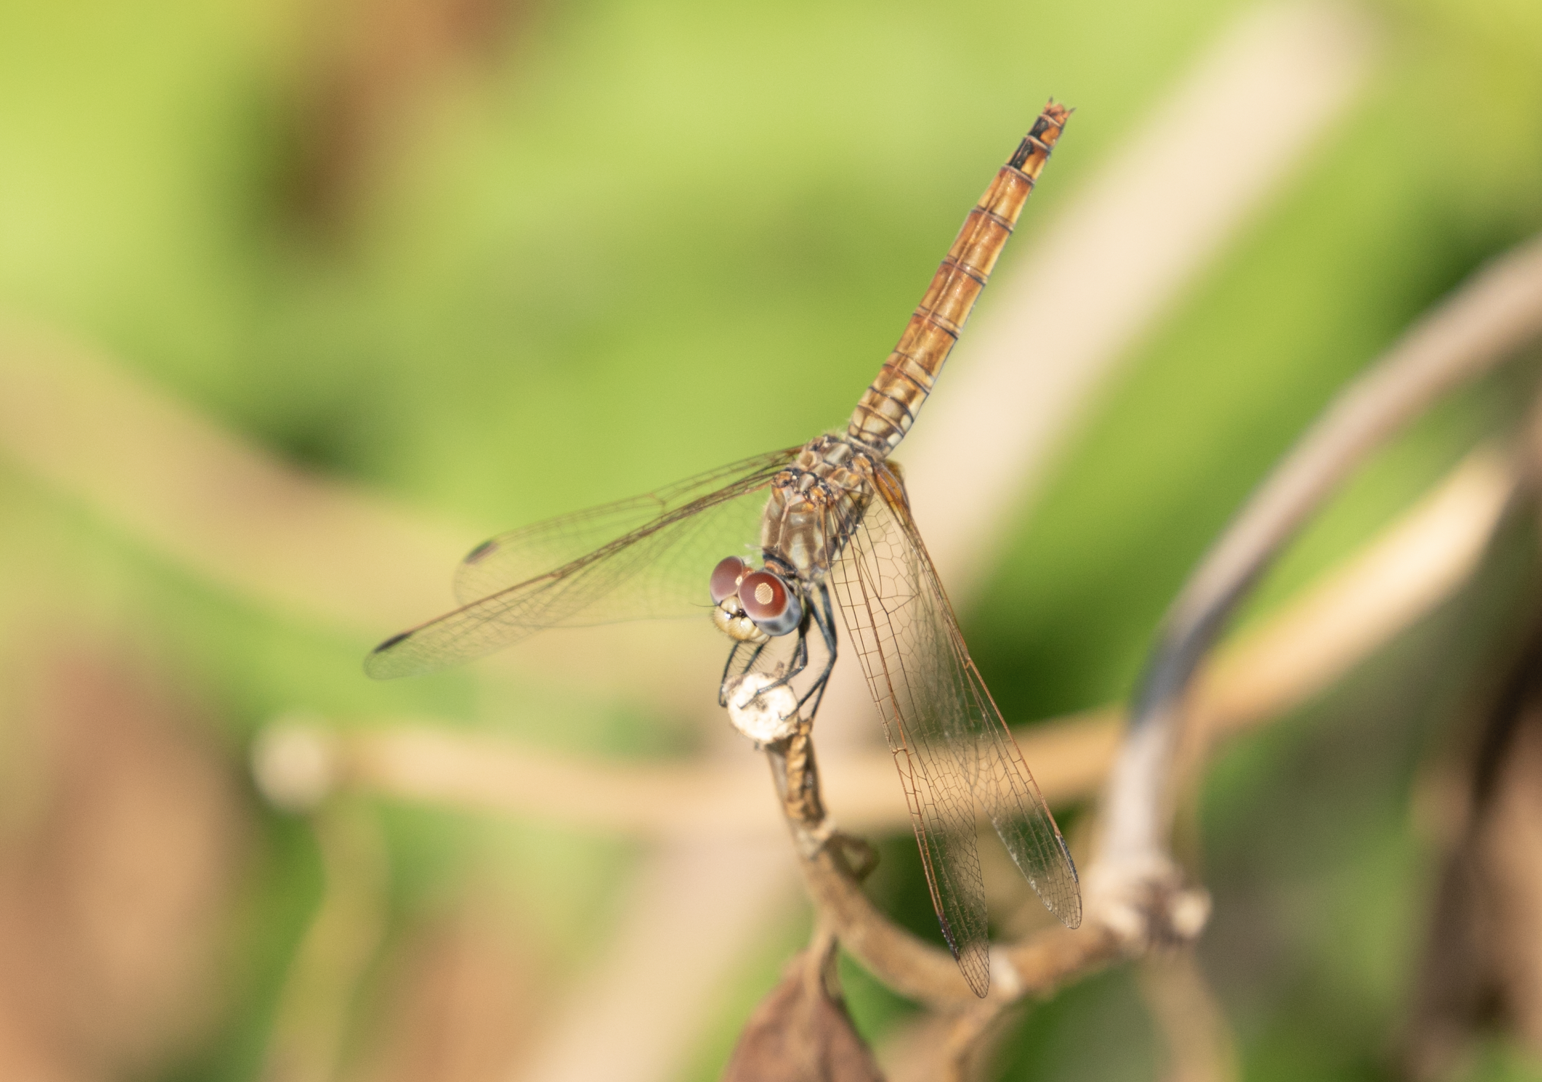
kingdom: Animalia
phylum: Arthropoda
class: Insecta
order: Odonata
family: Libellulidae
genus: Trithemis
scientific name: Trithemis annulata
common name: Violet dropwing
